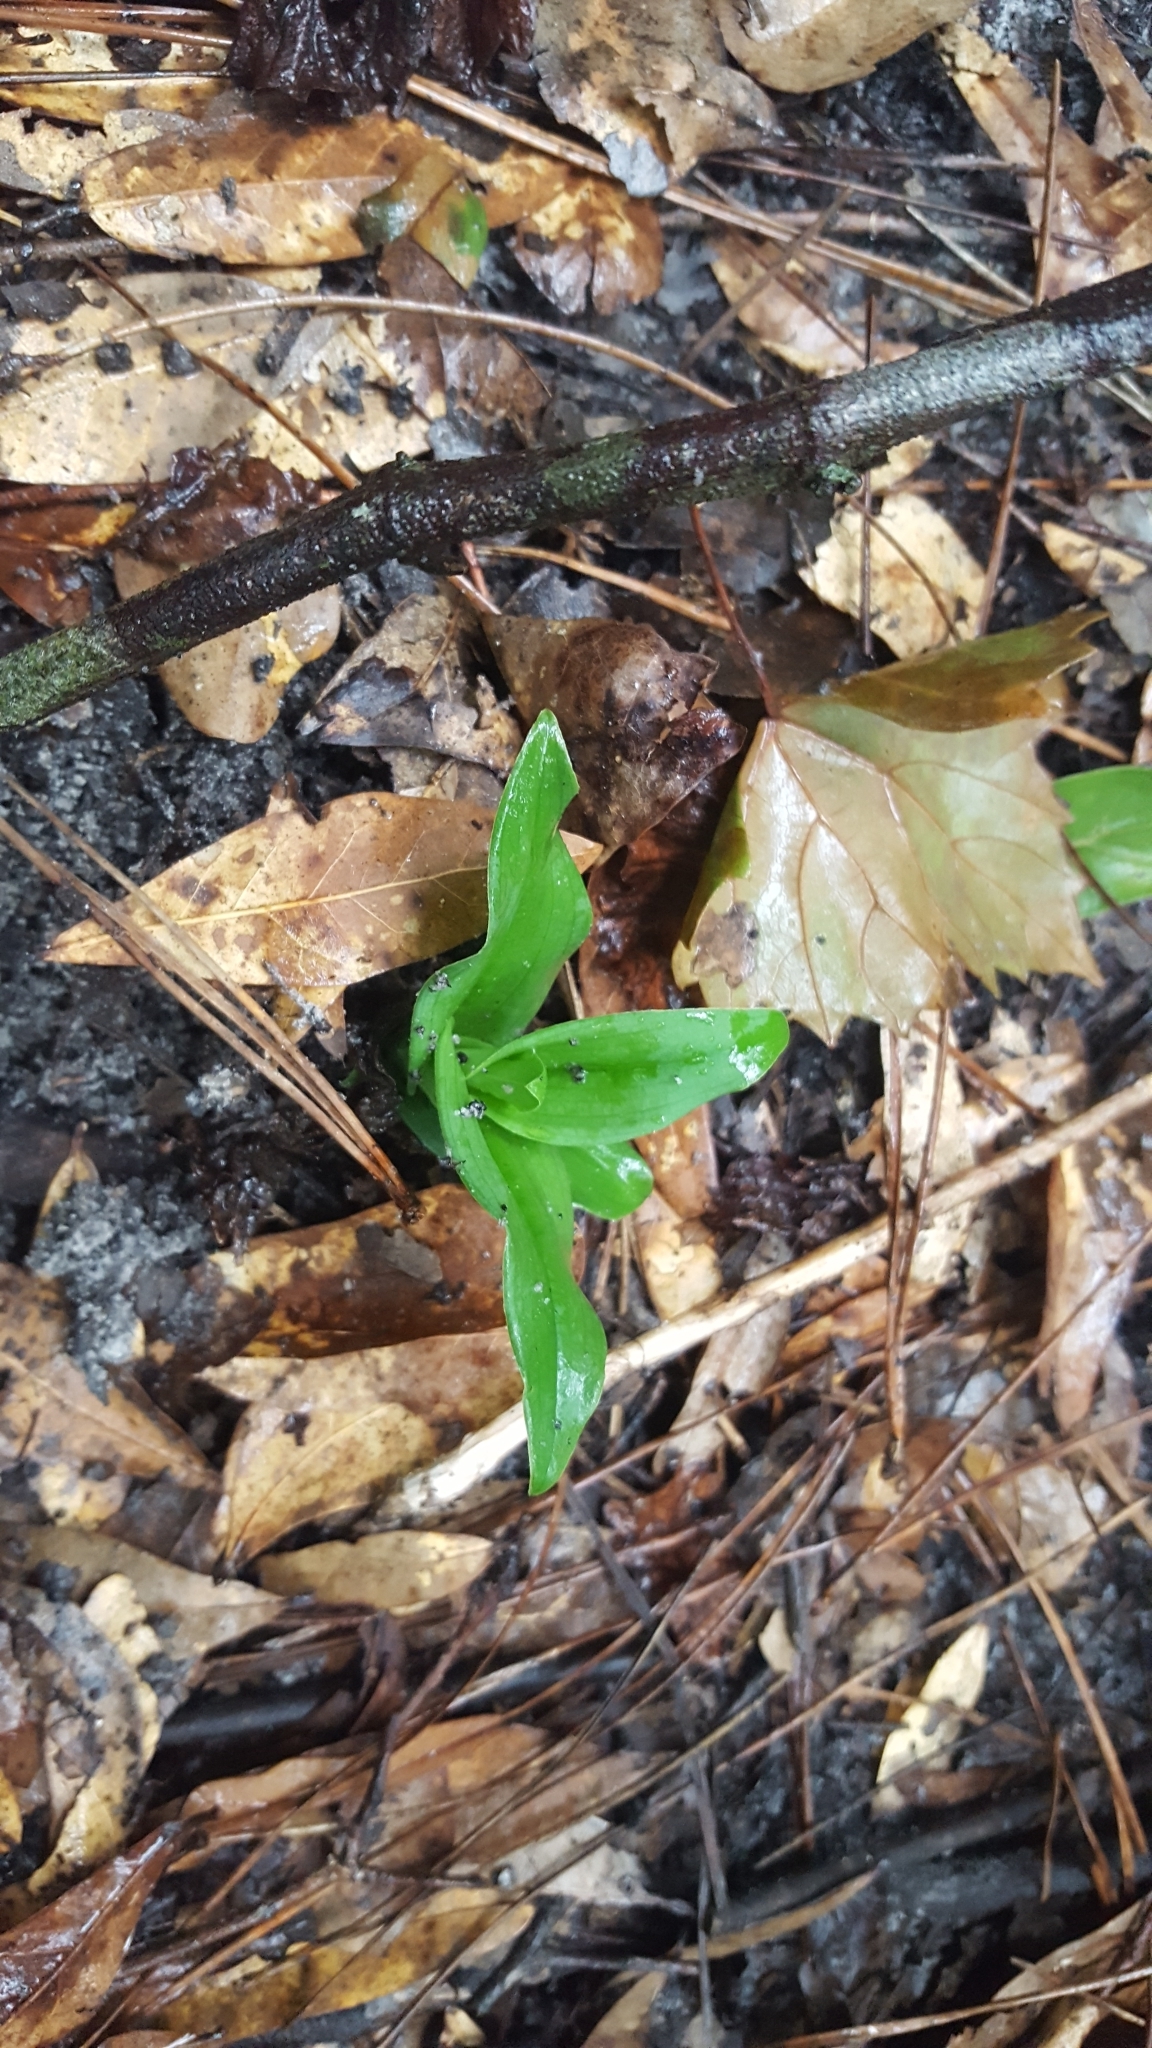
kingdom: Plantae
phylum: Tracheophyta
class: Liliopsida
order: Asparagales
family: Orchidaceae
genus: Habenaria
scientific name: Habenaria floribunda
